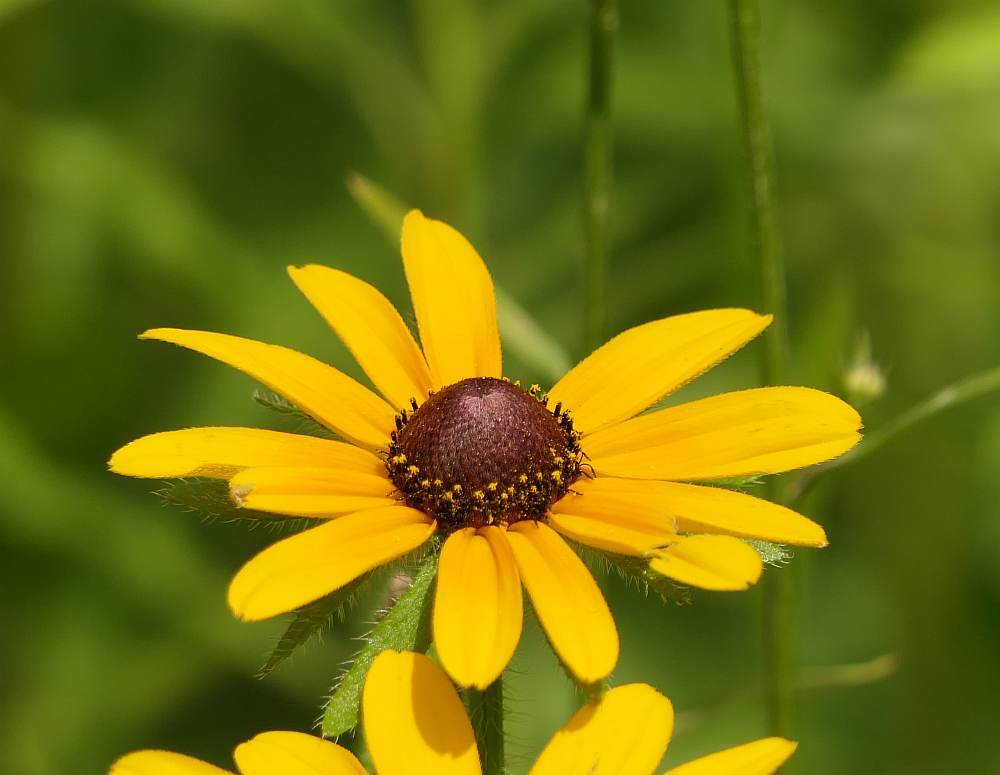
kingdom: Plantae
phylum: Tracheophyta
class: Magnoliopsida
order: Asterales
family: Asteraceae
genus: Rudbeckia
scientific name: Rudbeckia hirta
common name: Black-eyed-susan
